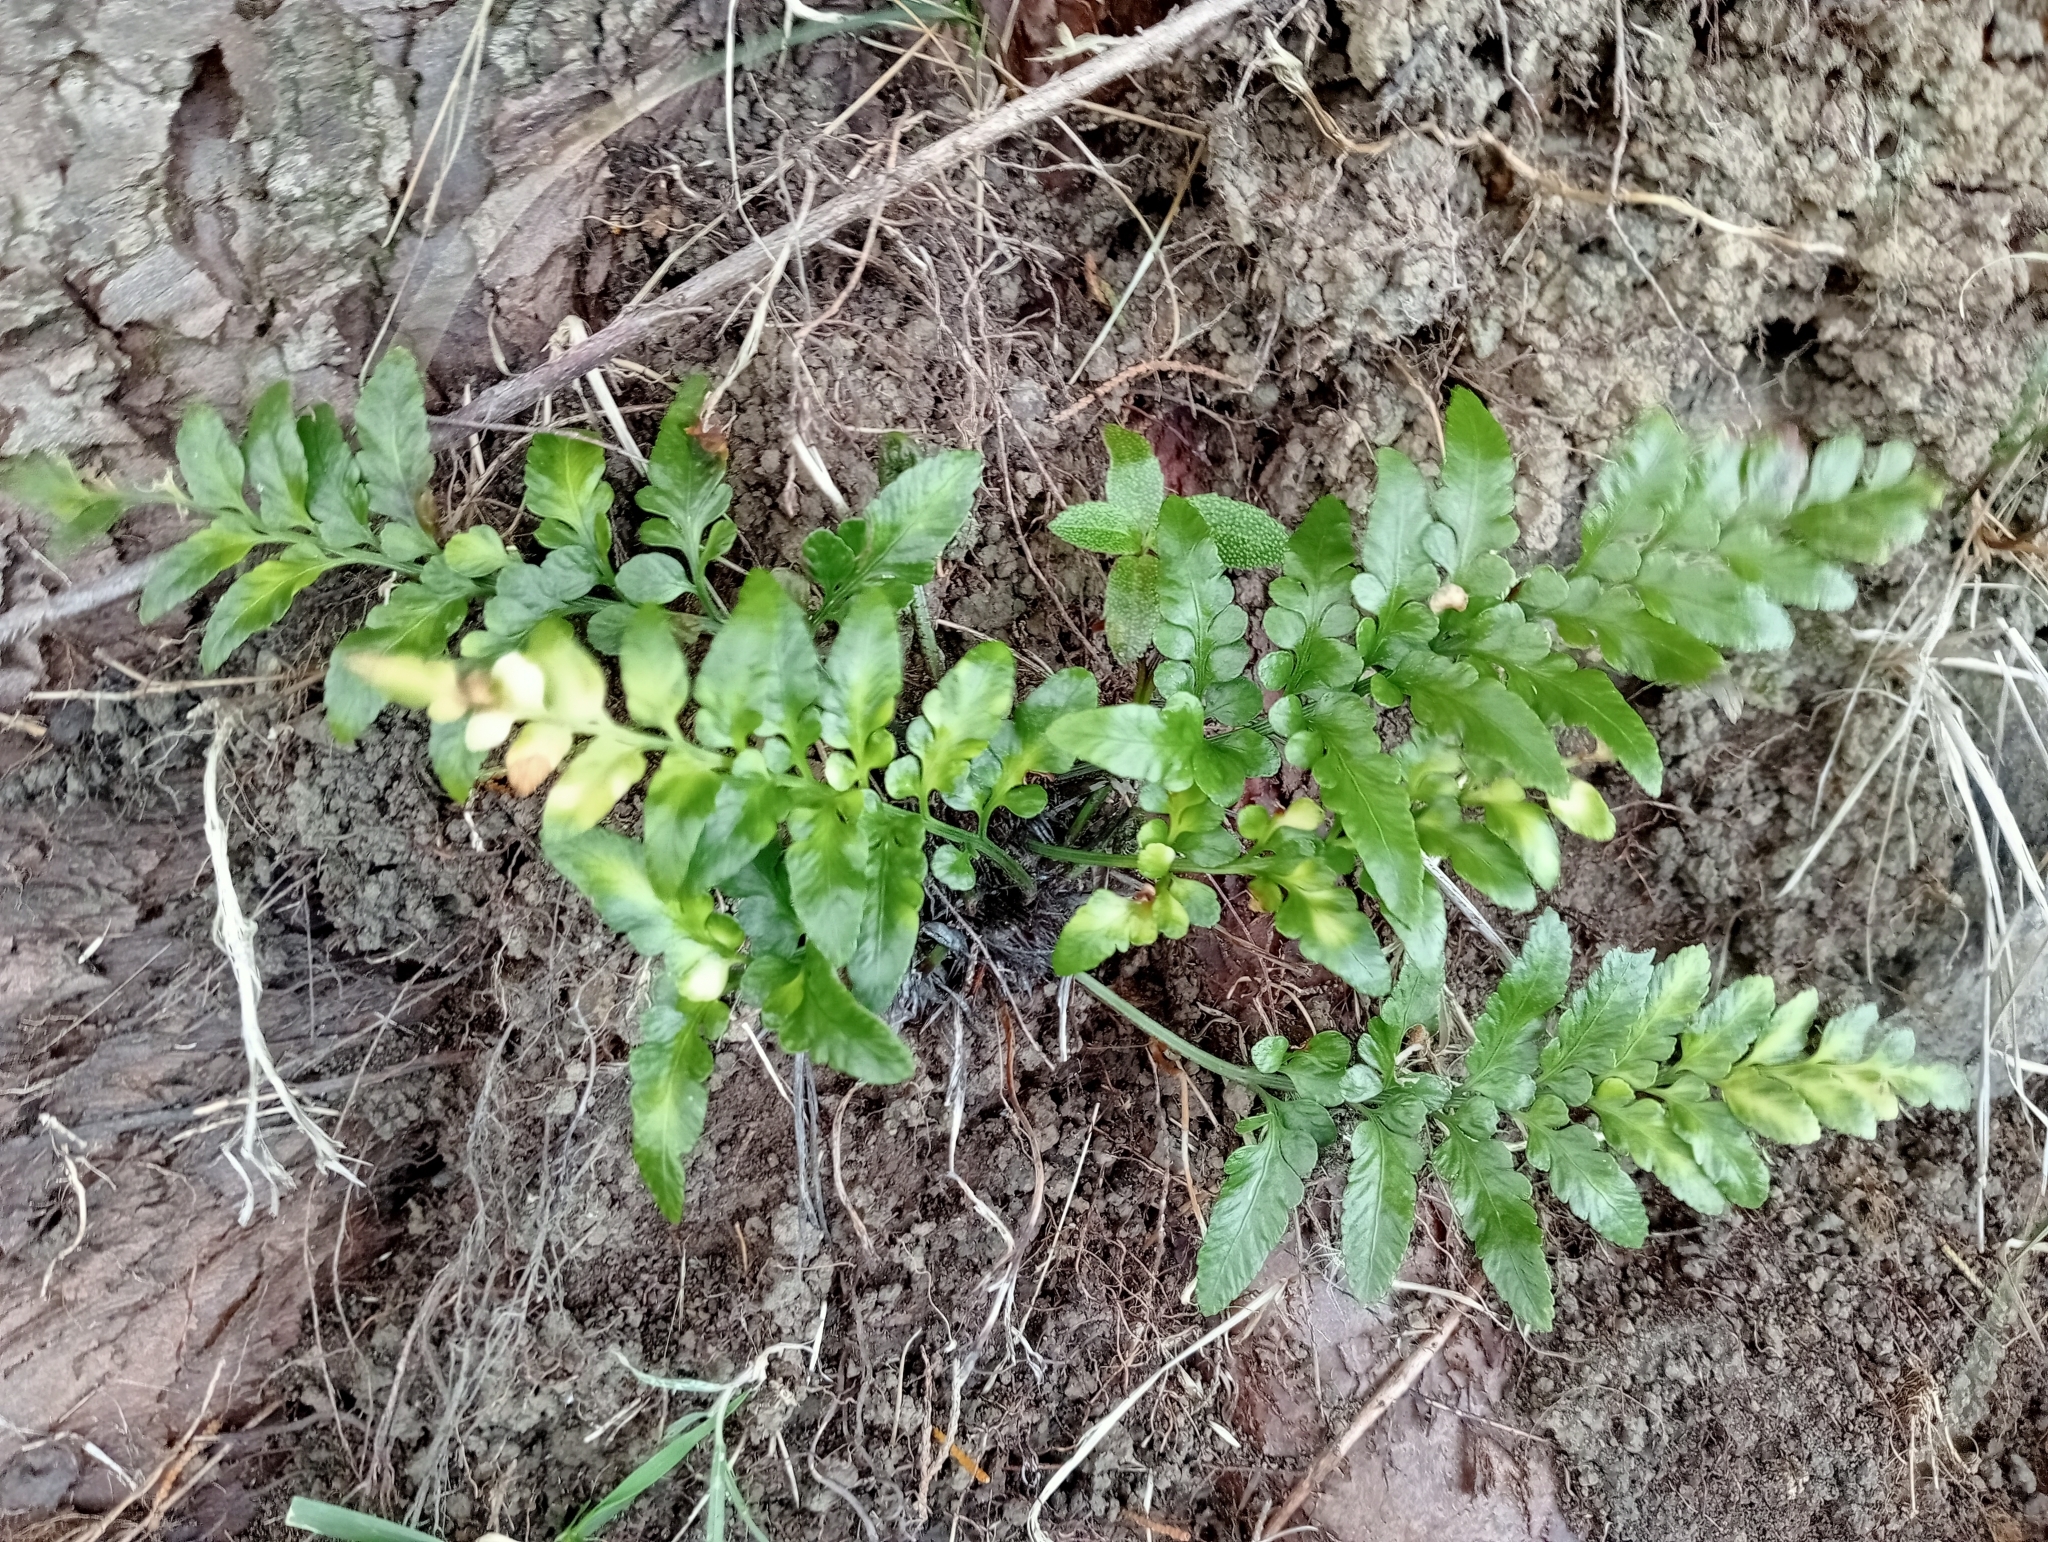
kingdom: Plantae
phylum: Tracheophyta
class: Polypodiopsida
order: Polypodiales
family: Aspleniaceae
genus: Asplenium
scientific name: Asplenium lyallii
